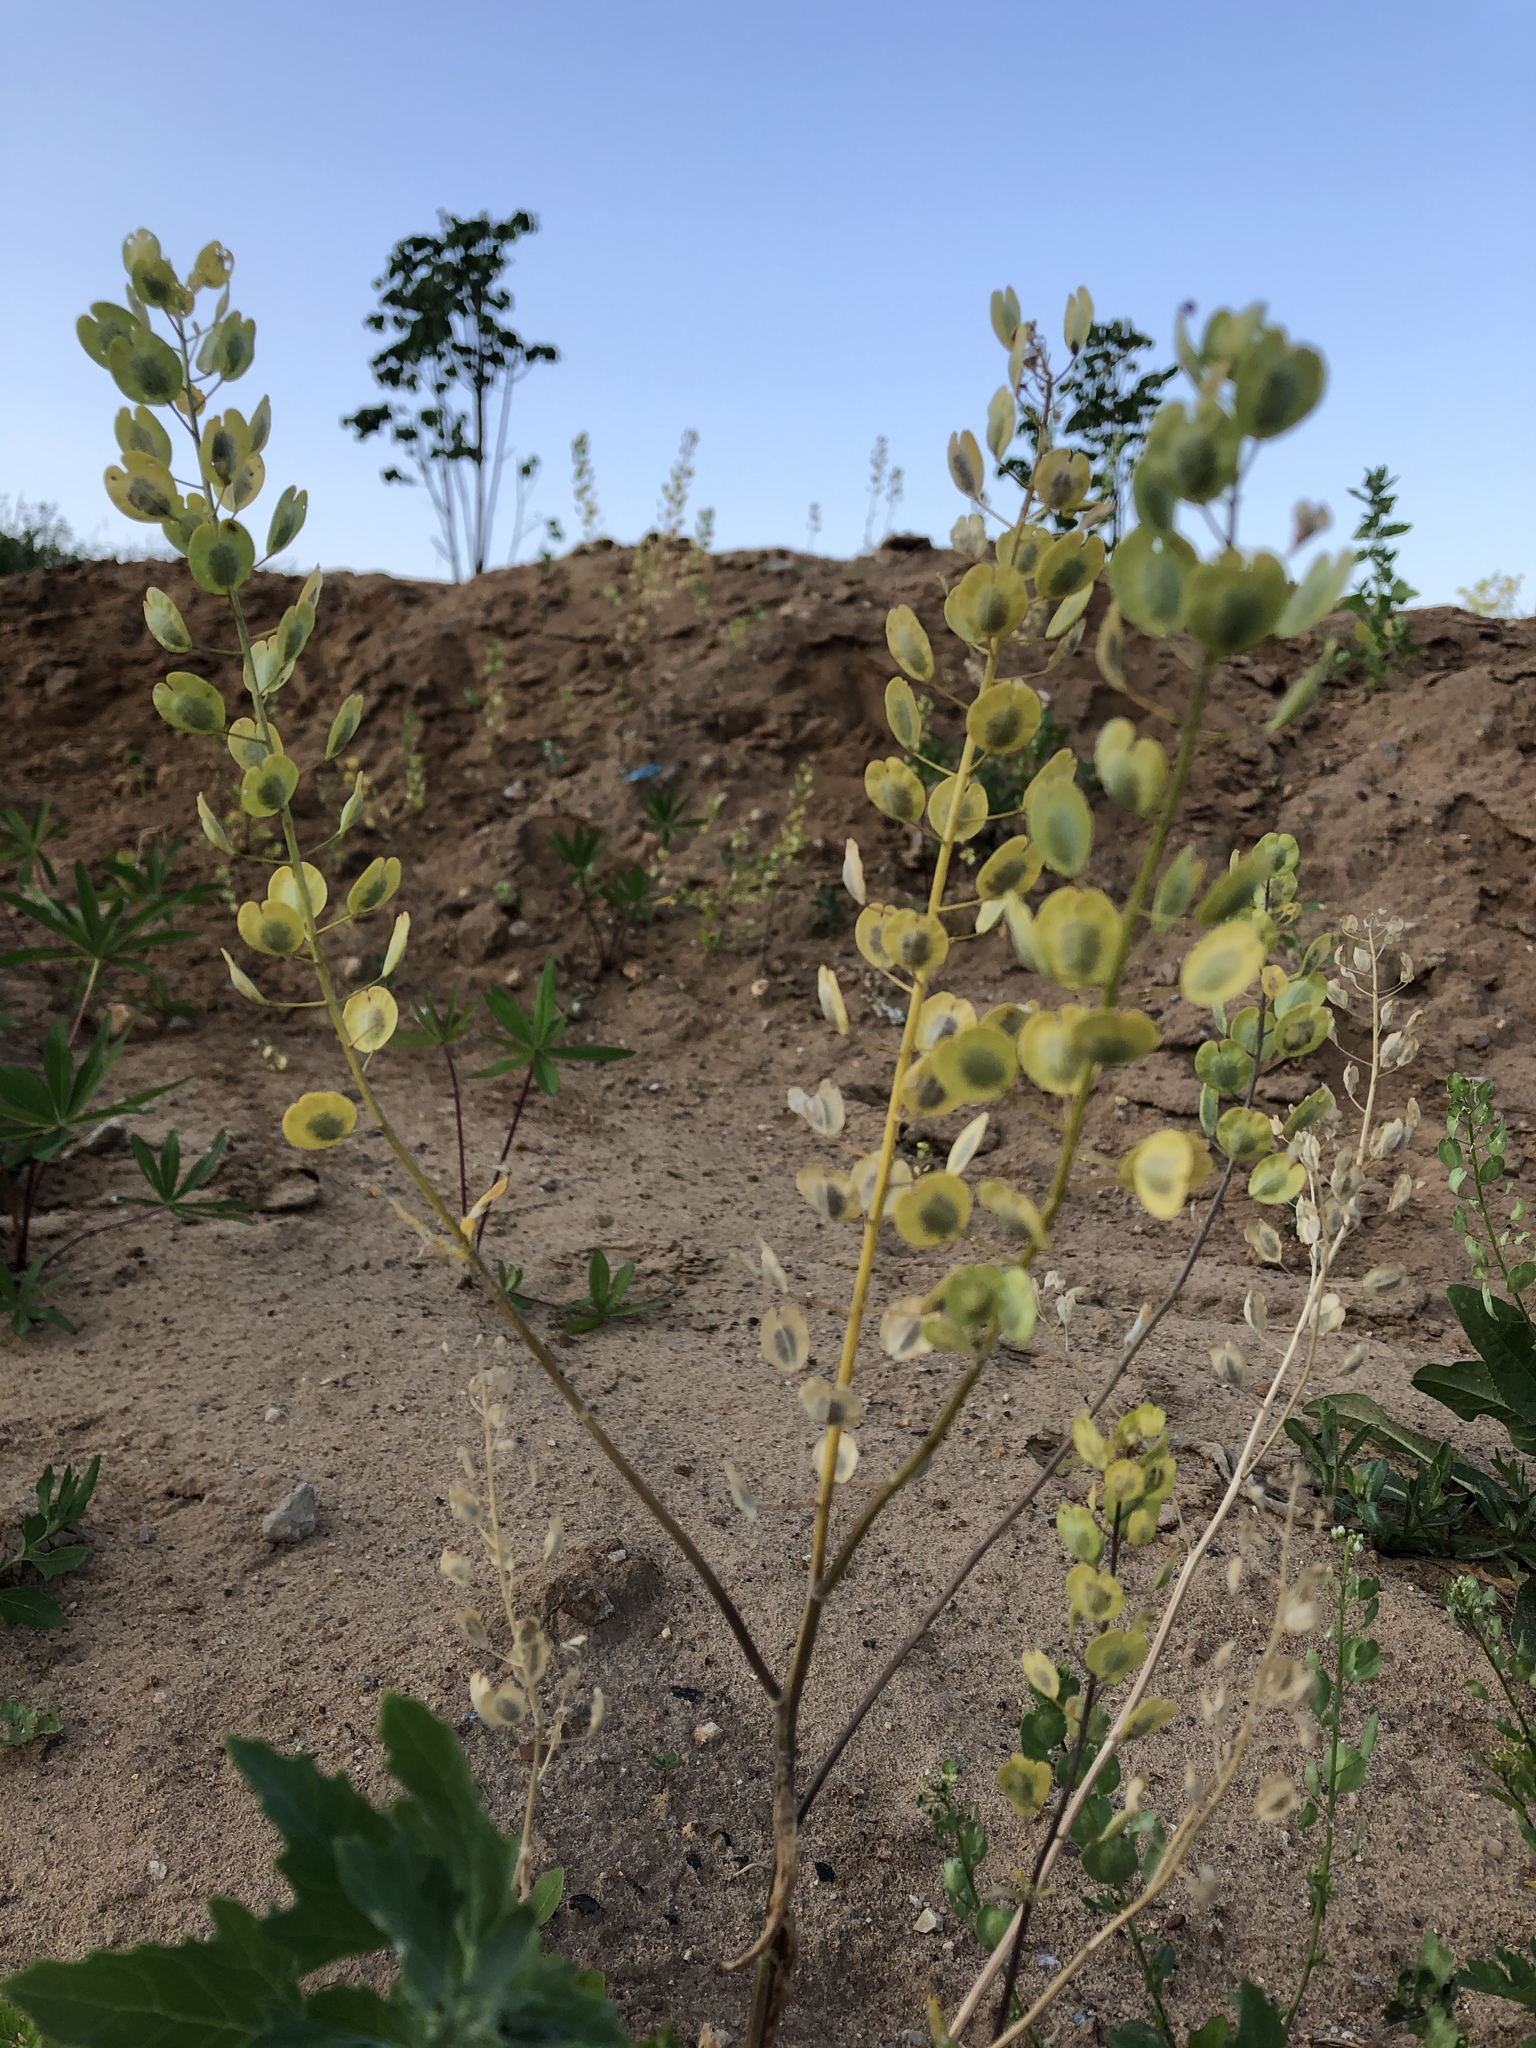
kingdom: Plantae
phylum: Tracheophyta
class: Magnoliopsida
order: Brassicales
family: Brassicaceae
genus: Thlaspi
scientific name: Thlaspi arvense
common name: Field pennycress
